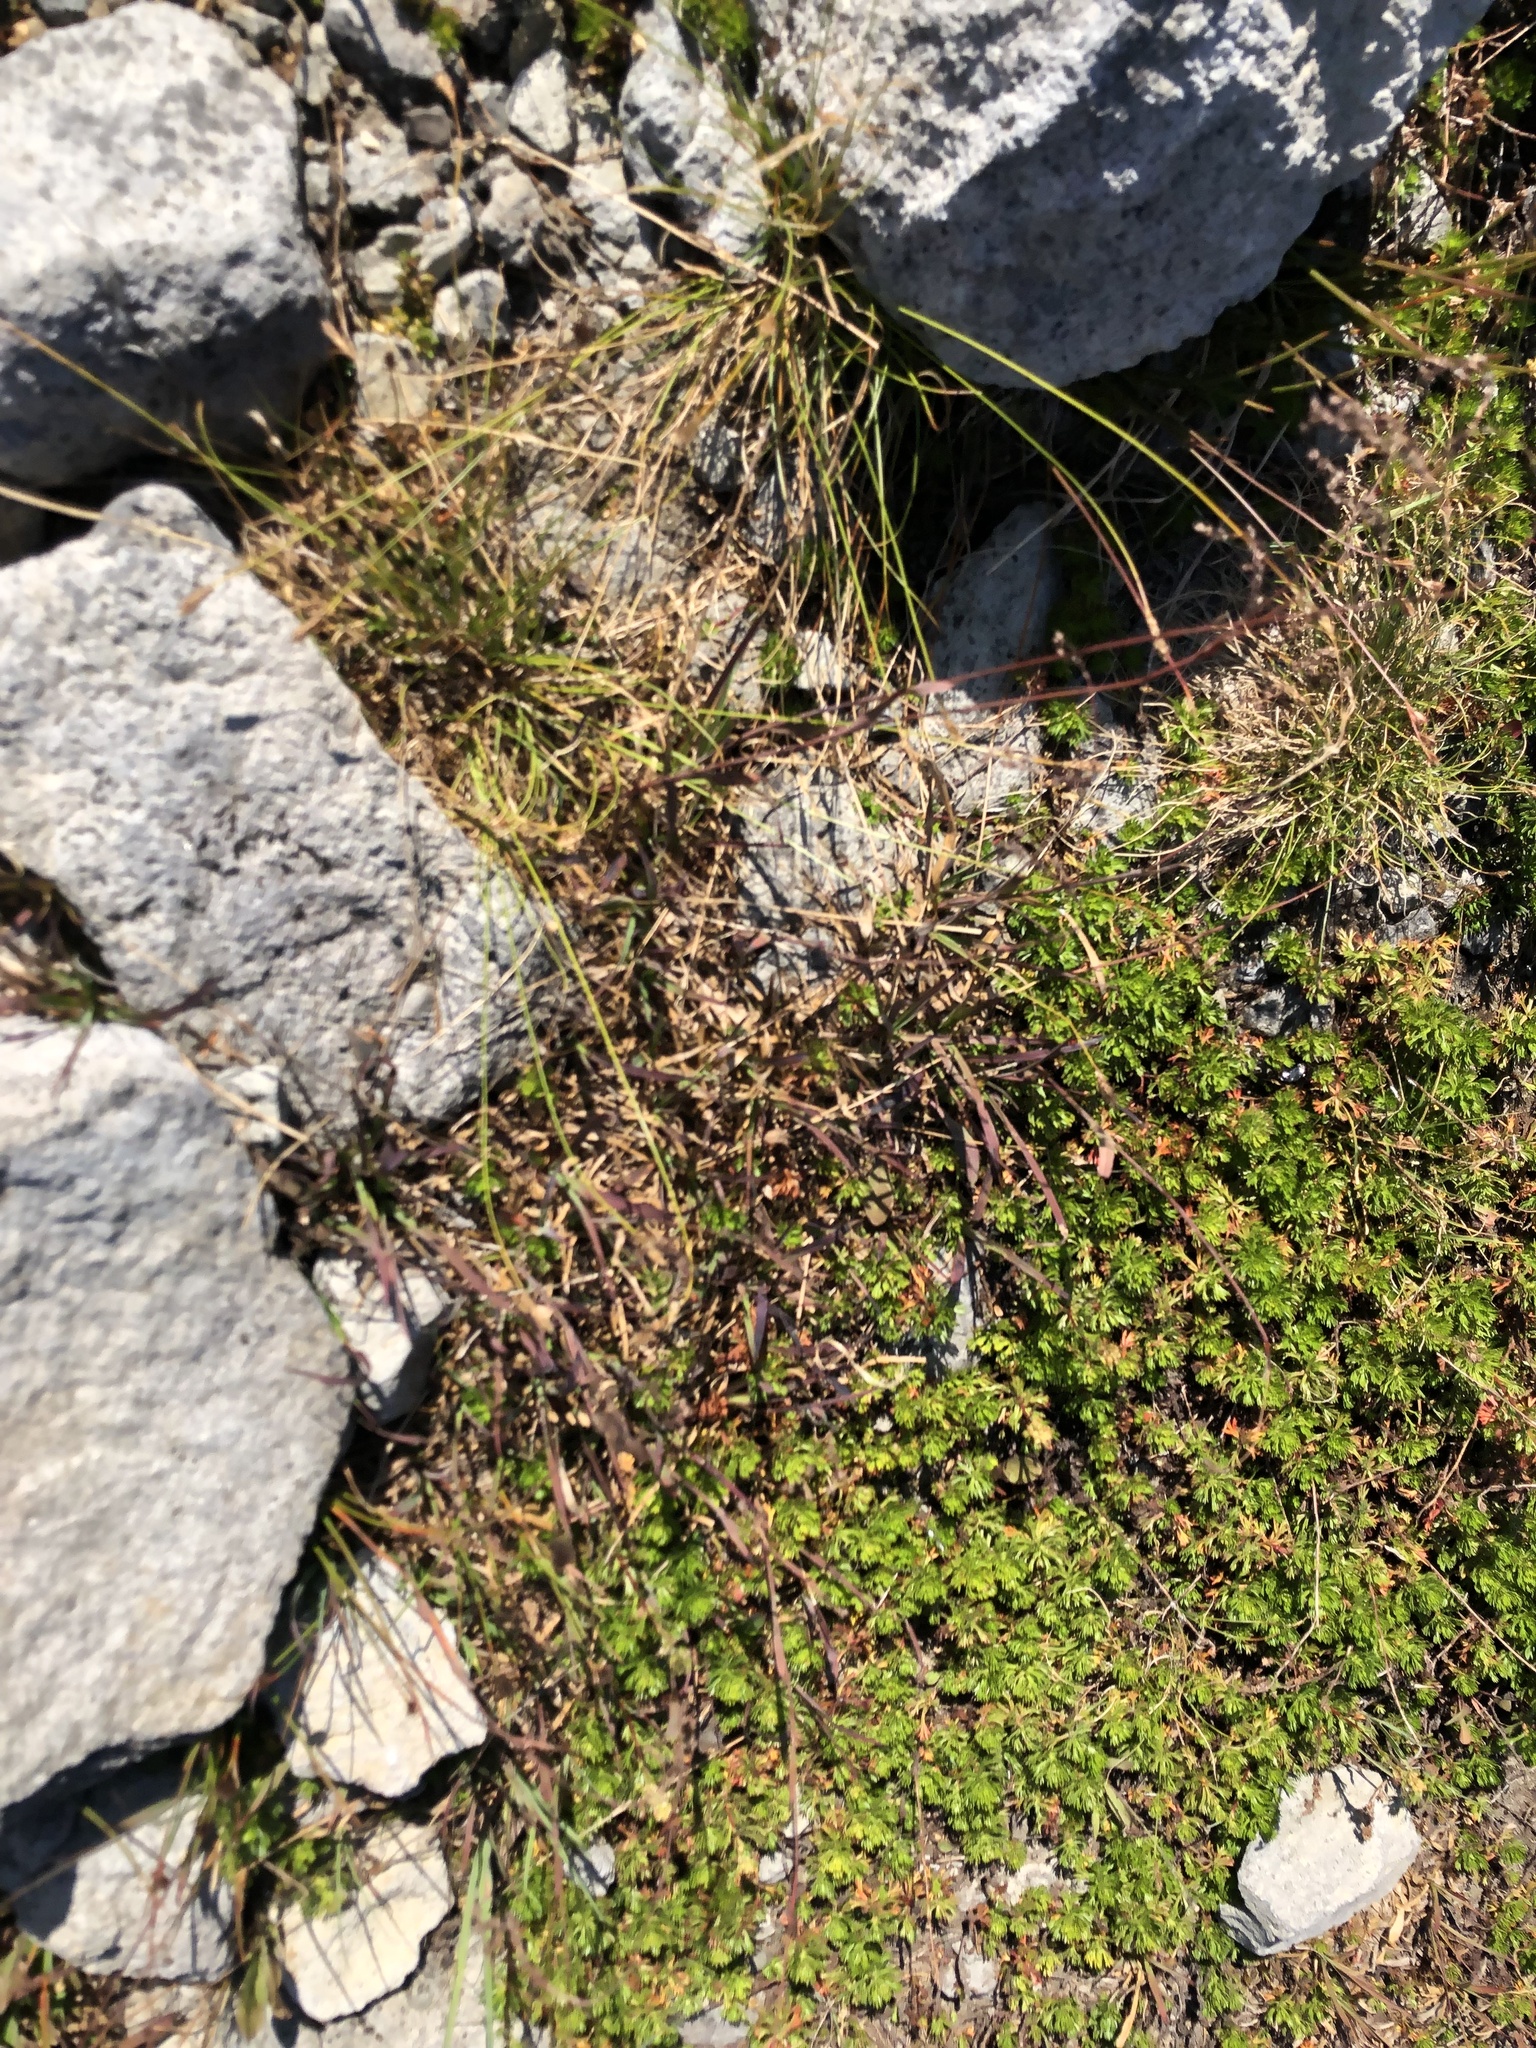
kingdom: Plantae
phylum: Tracheophyta
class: Magnoliopsida
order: Rosales
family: Rosaceae
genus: Luetkea
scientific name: Luetkea pectinata
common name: Partridgefoot
